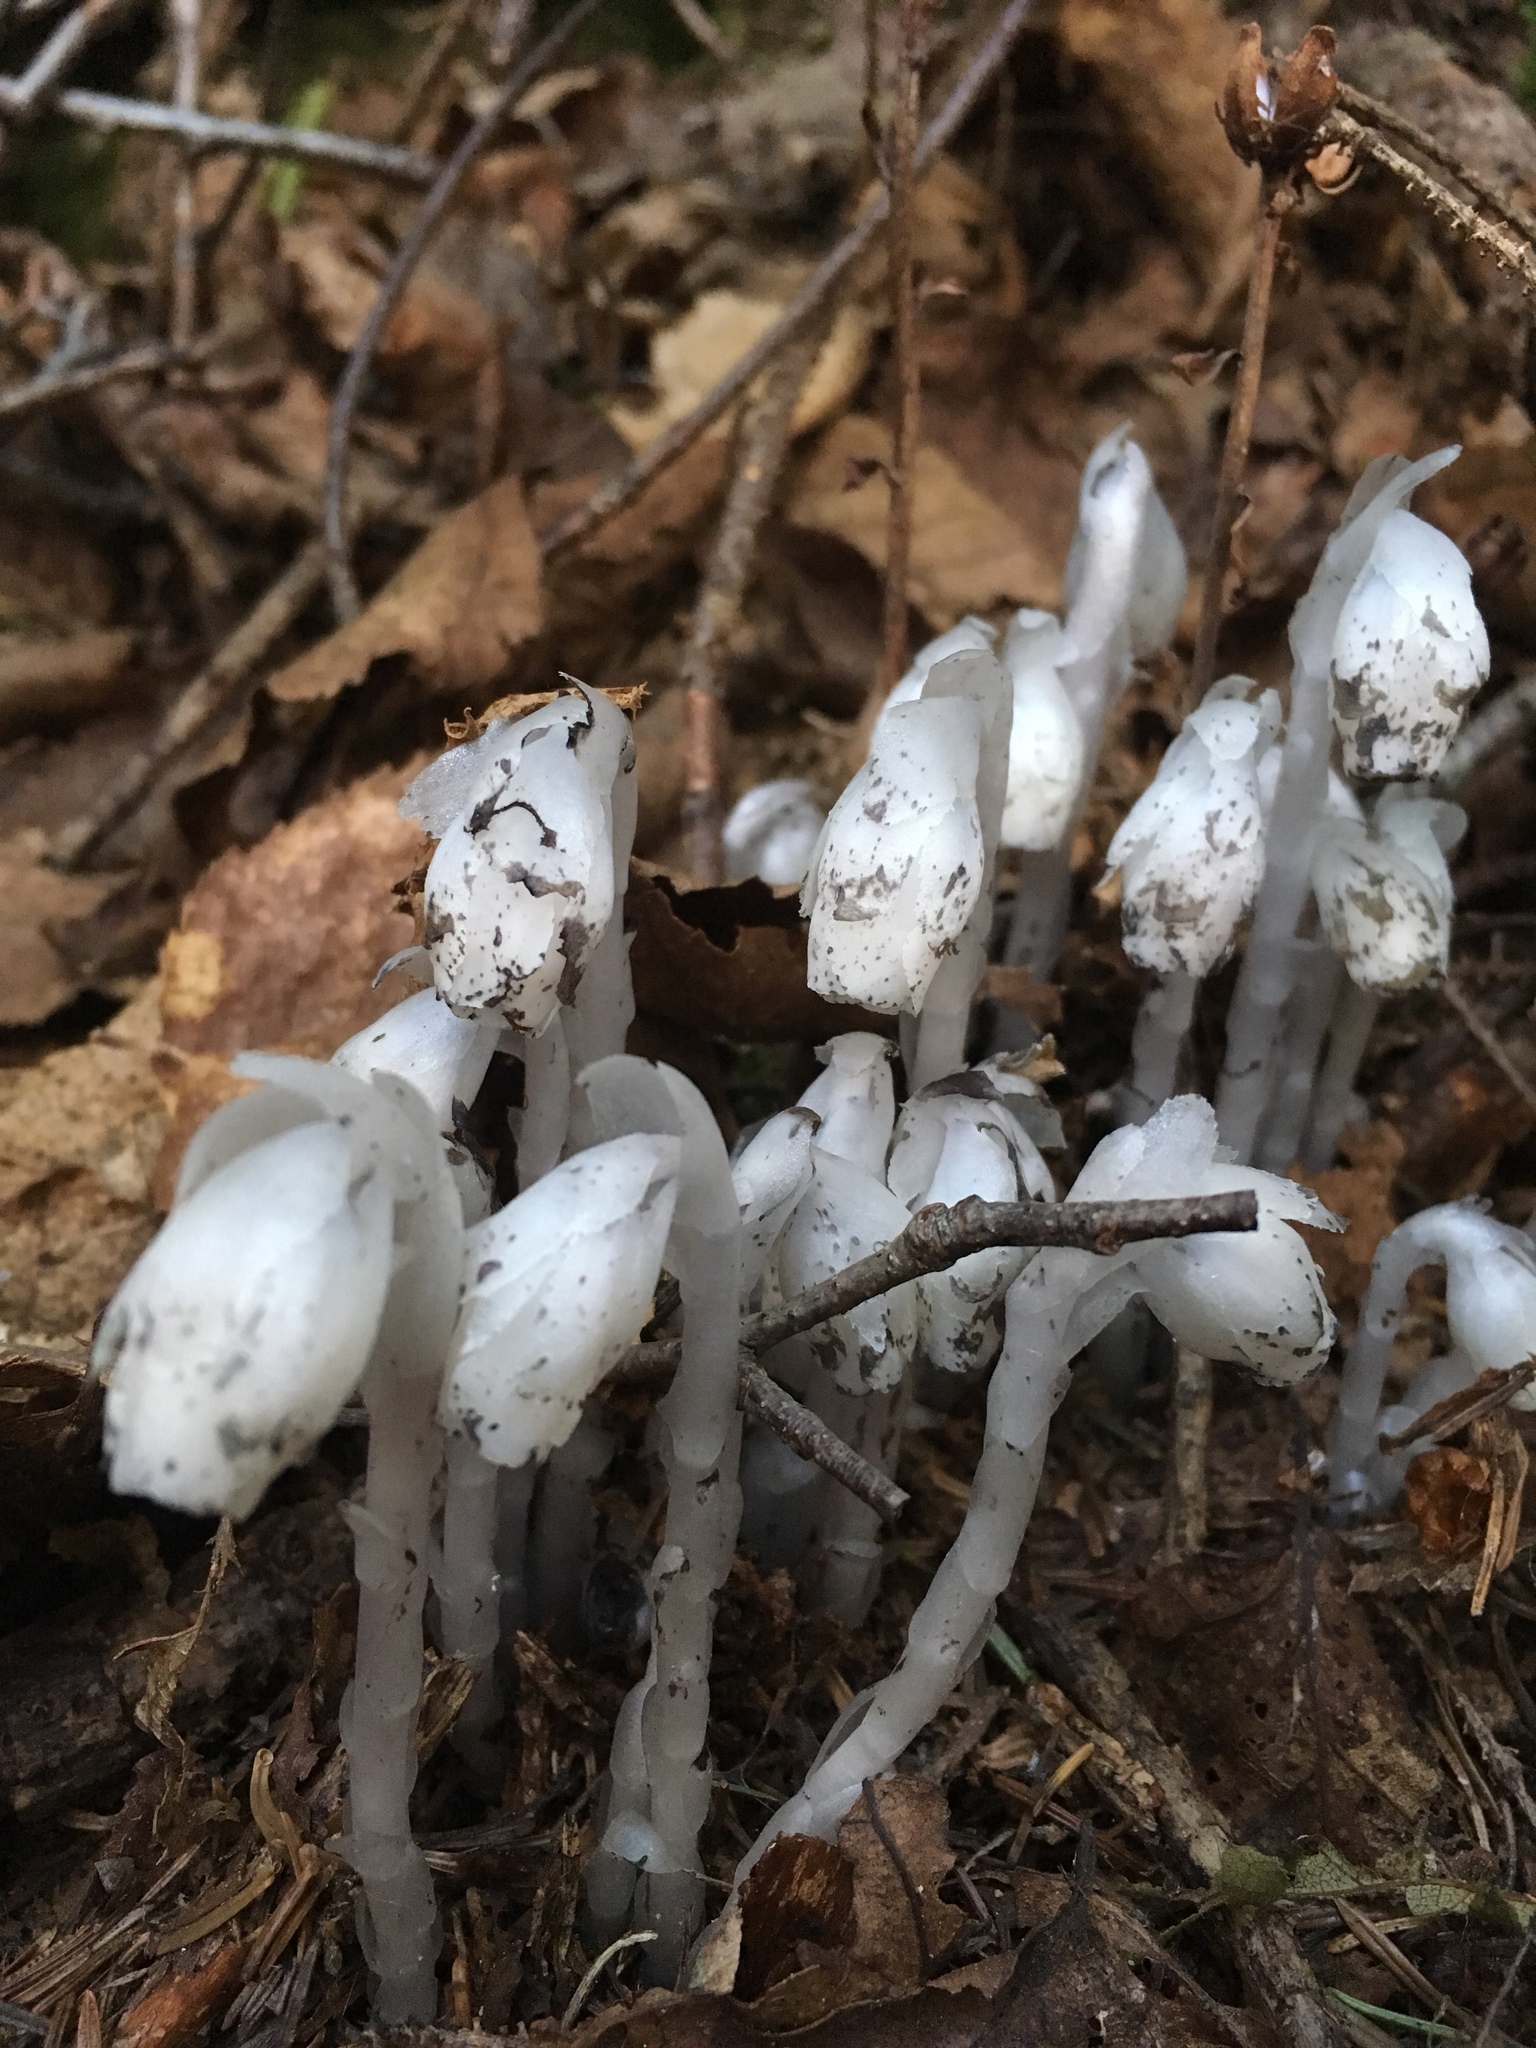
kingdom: Plantae
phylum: Tracheophyta
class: Magnoliopsida
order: Ericales
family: Ericaceae
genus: Monotropa
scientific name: Monotropa uniflora
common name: Convulsion root
